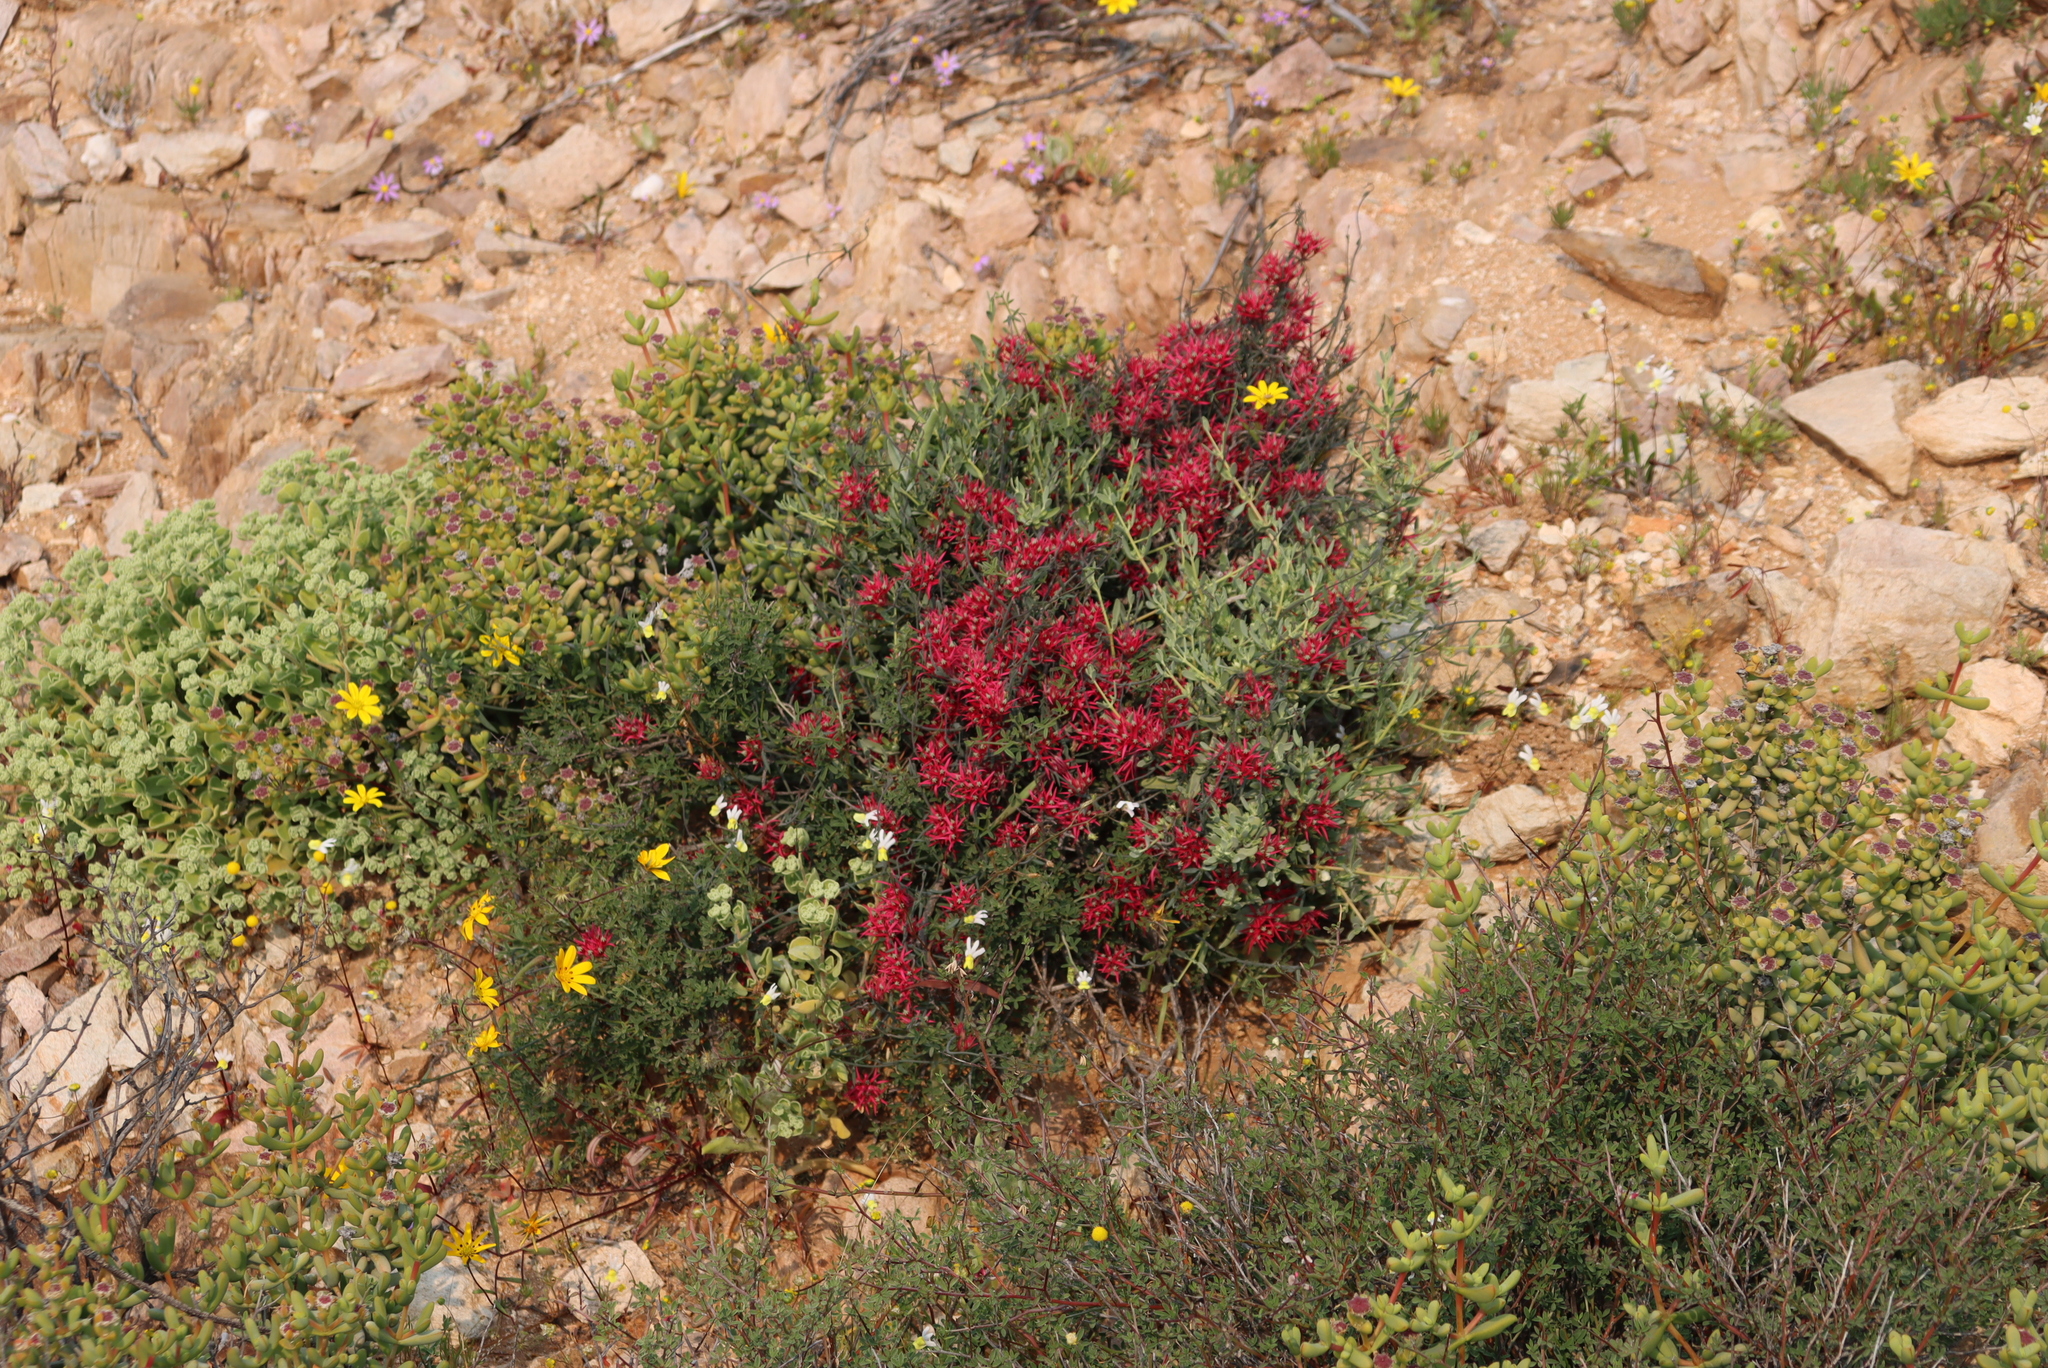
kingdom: Plantae
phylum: Tracheophyta
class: Magnoliopsida
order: Gentianales
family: Apocynaceae
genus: Microloma
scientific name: Microloma calycinum
